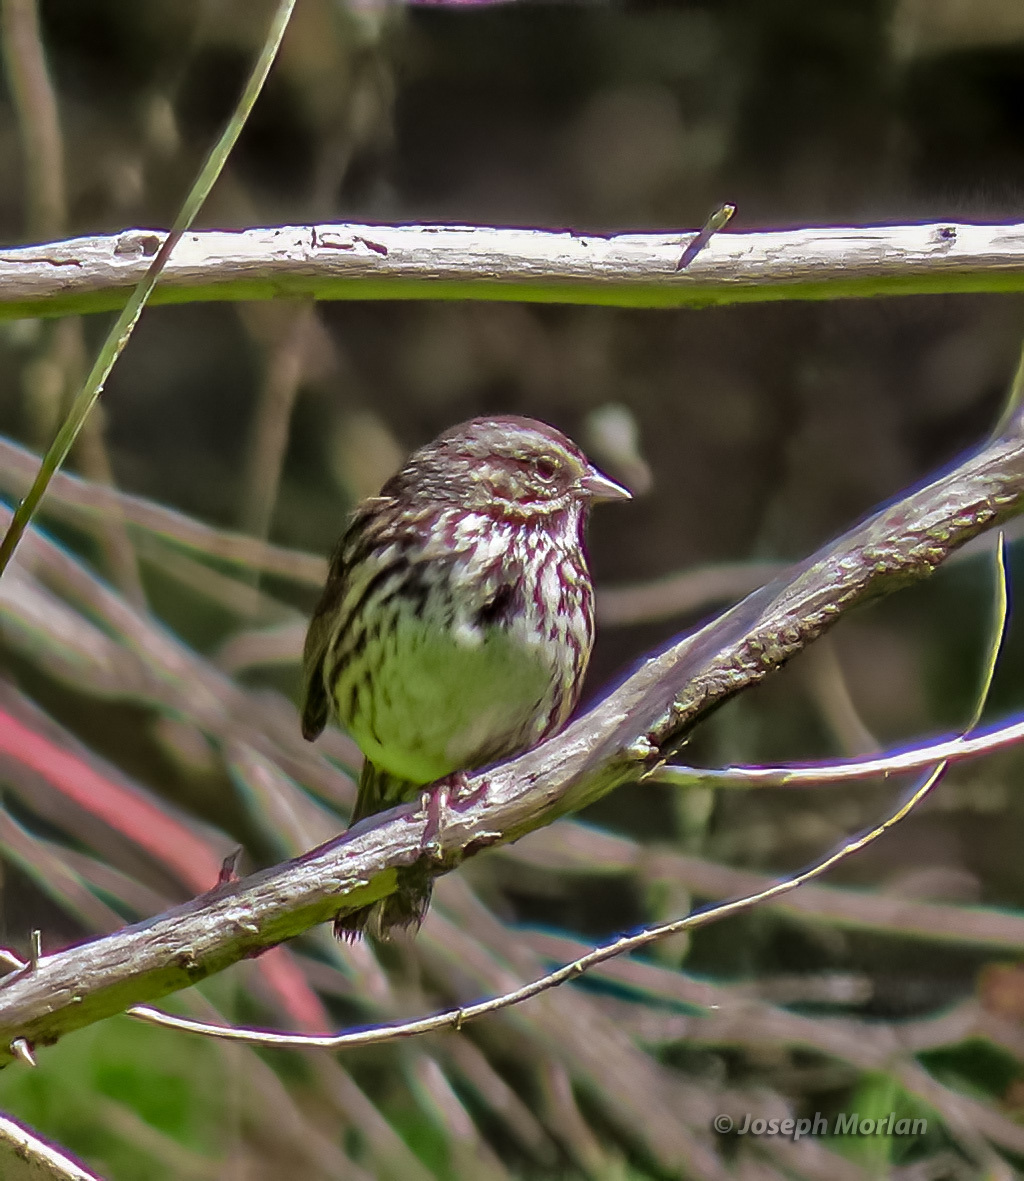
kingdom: Animalia
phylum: Chordata
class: Aves
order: Passeriformes
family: Passerellidae
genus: Melospiza
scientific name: Melospiza melodia
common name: Song sparrow
